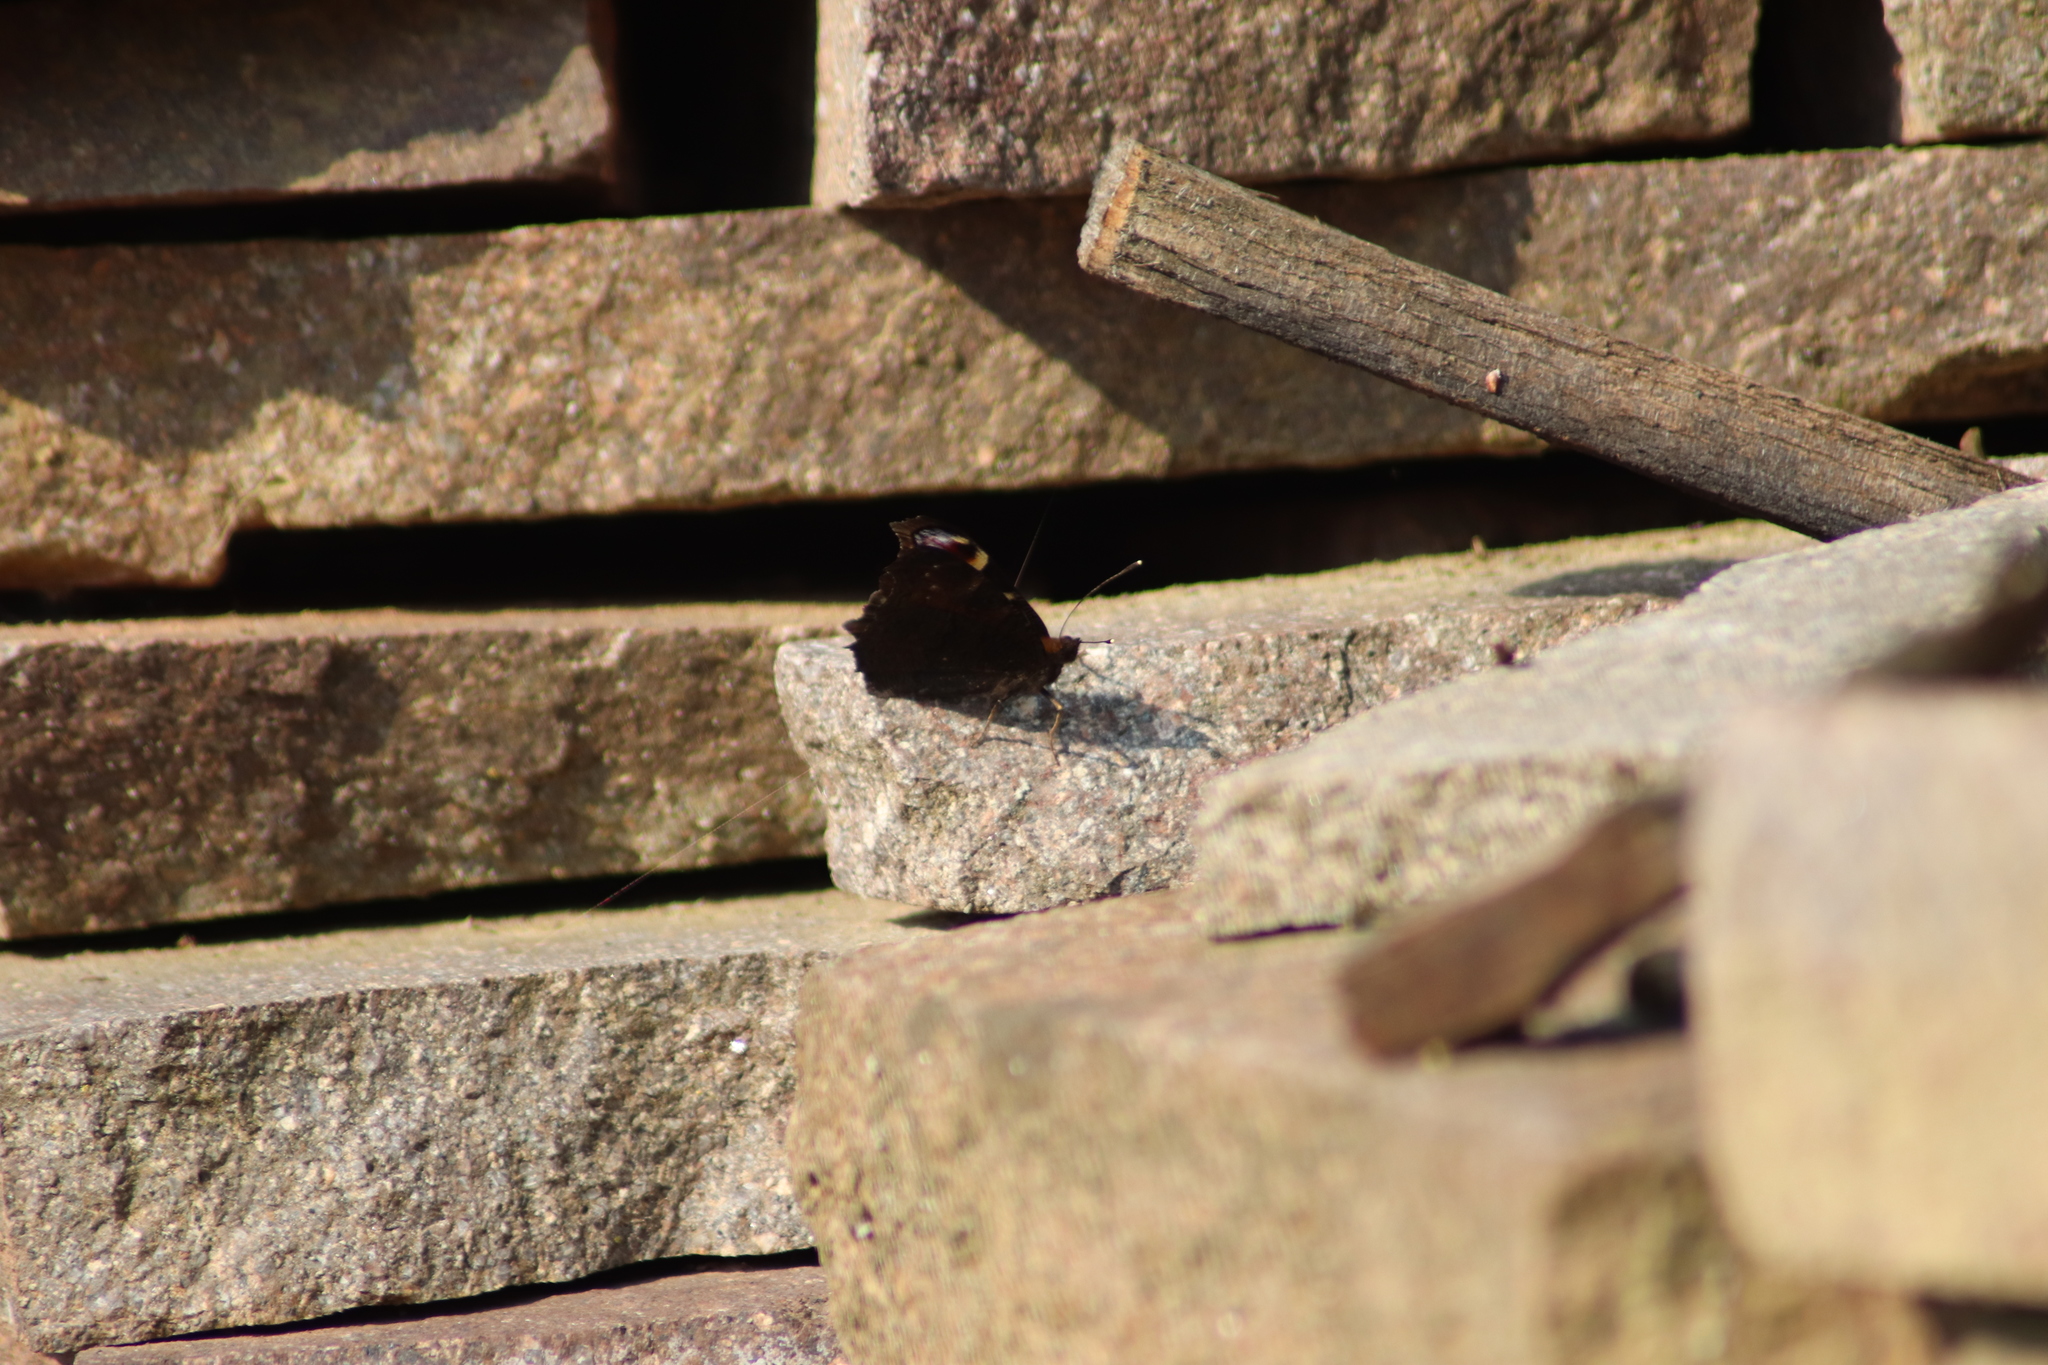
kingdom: Animalia
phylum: Arthropoda
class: Insecta
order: Lepidoptera
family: Nymphalidae
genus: Aglais
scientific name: Aglais io
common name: Peacock
